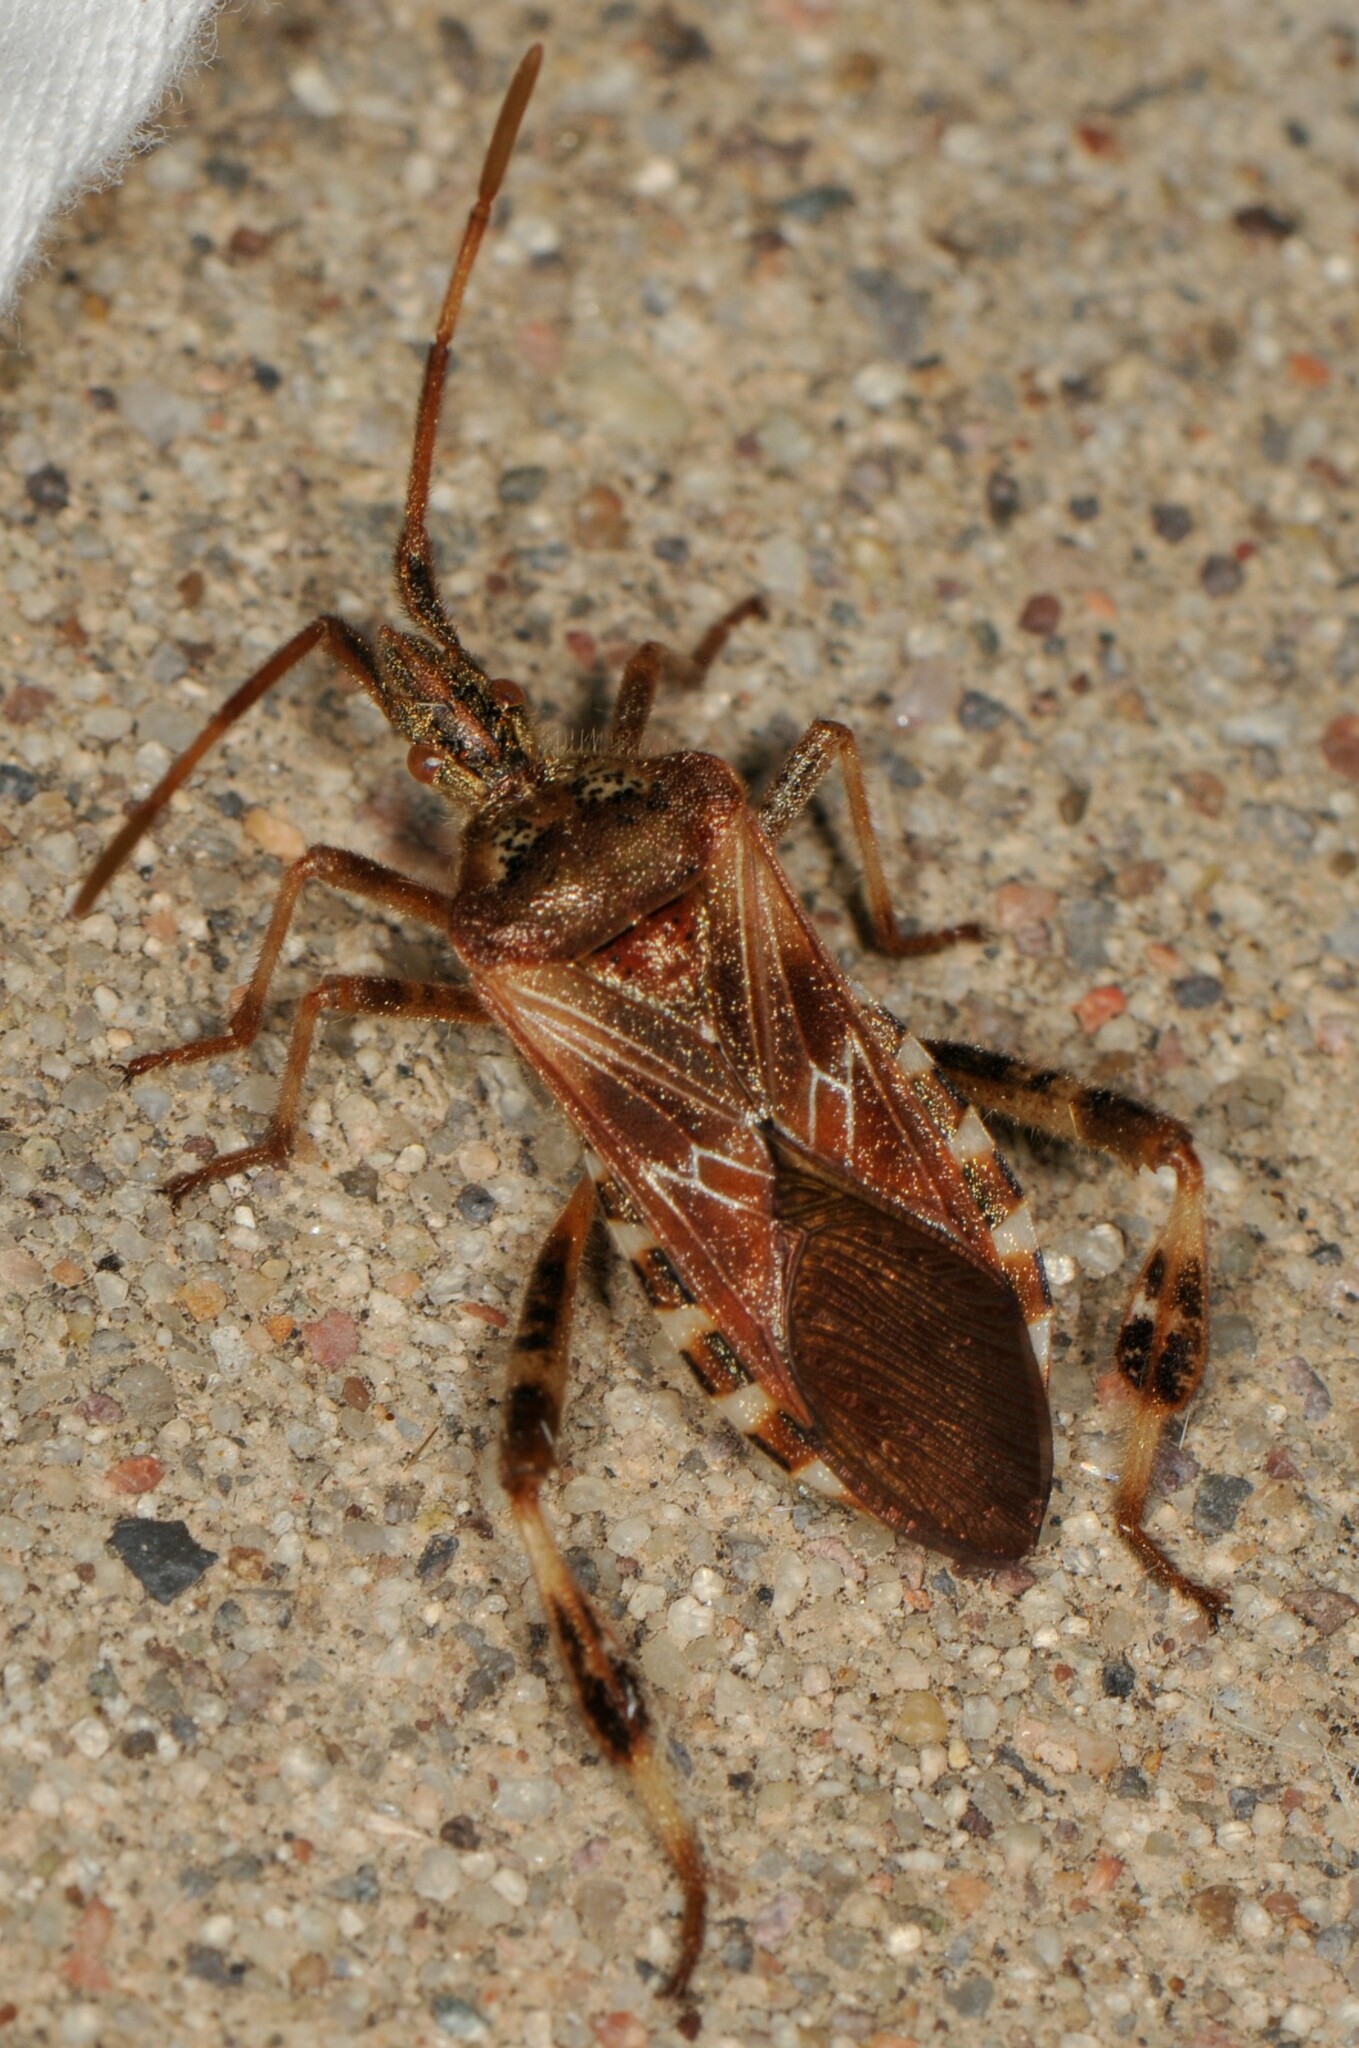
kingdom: Animalia
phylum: Arthropoda
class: Insecta
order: Hemiptera
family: Coreidae
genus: Leptoglossus
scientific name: Leptoglossus occidentalis
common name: Western conifer-seed bug
